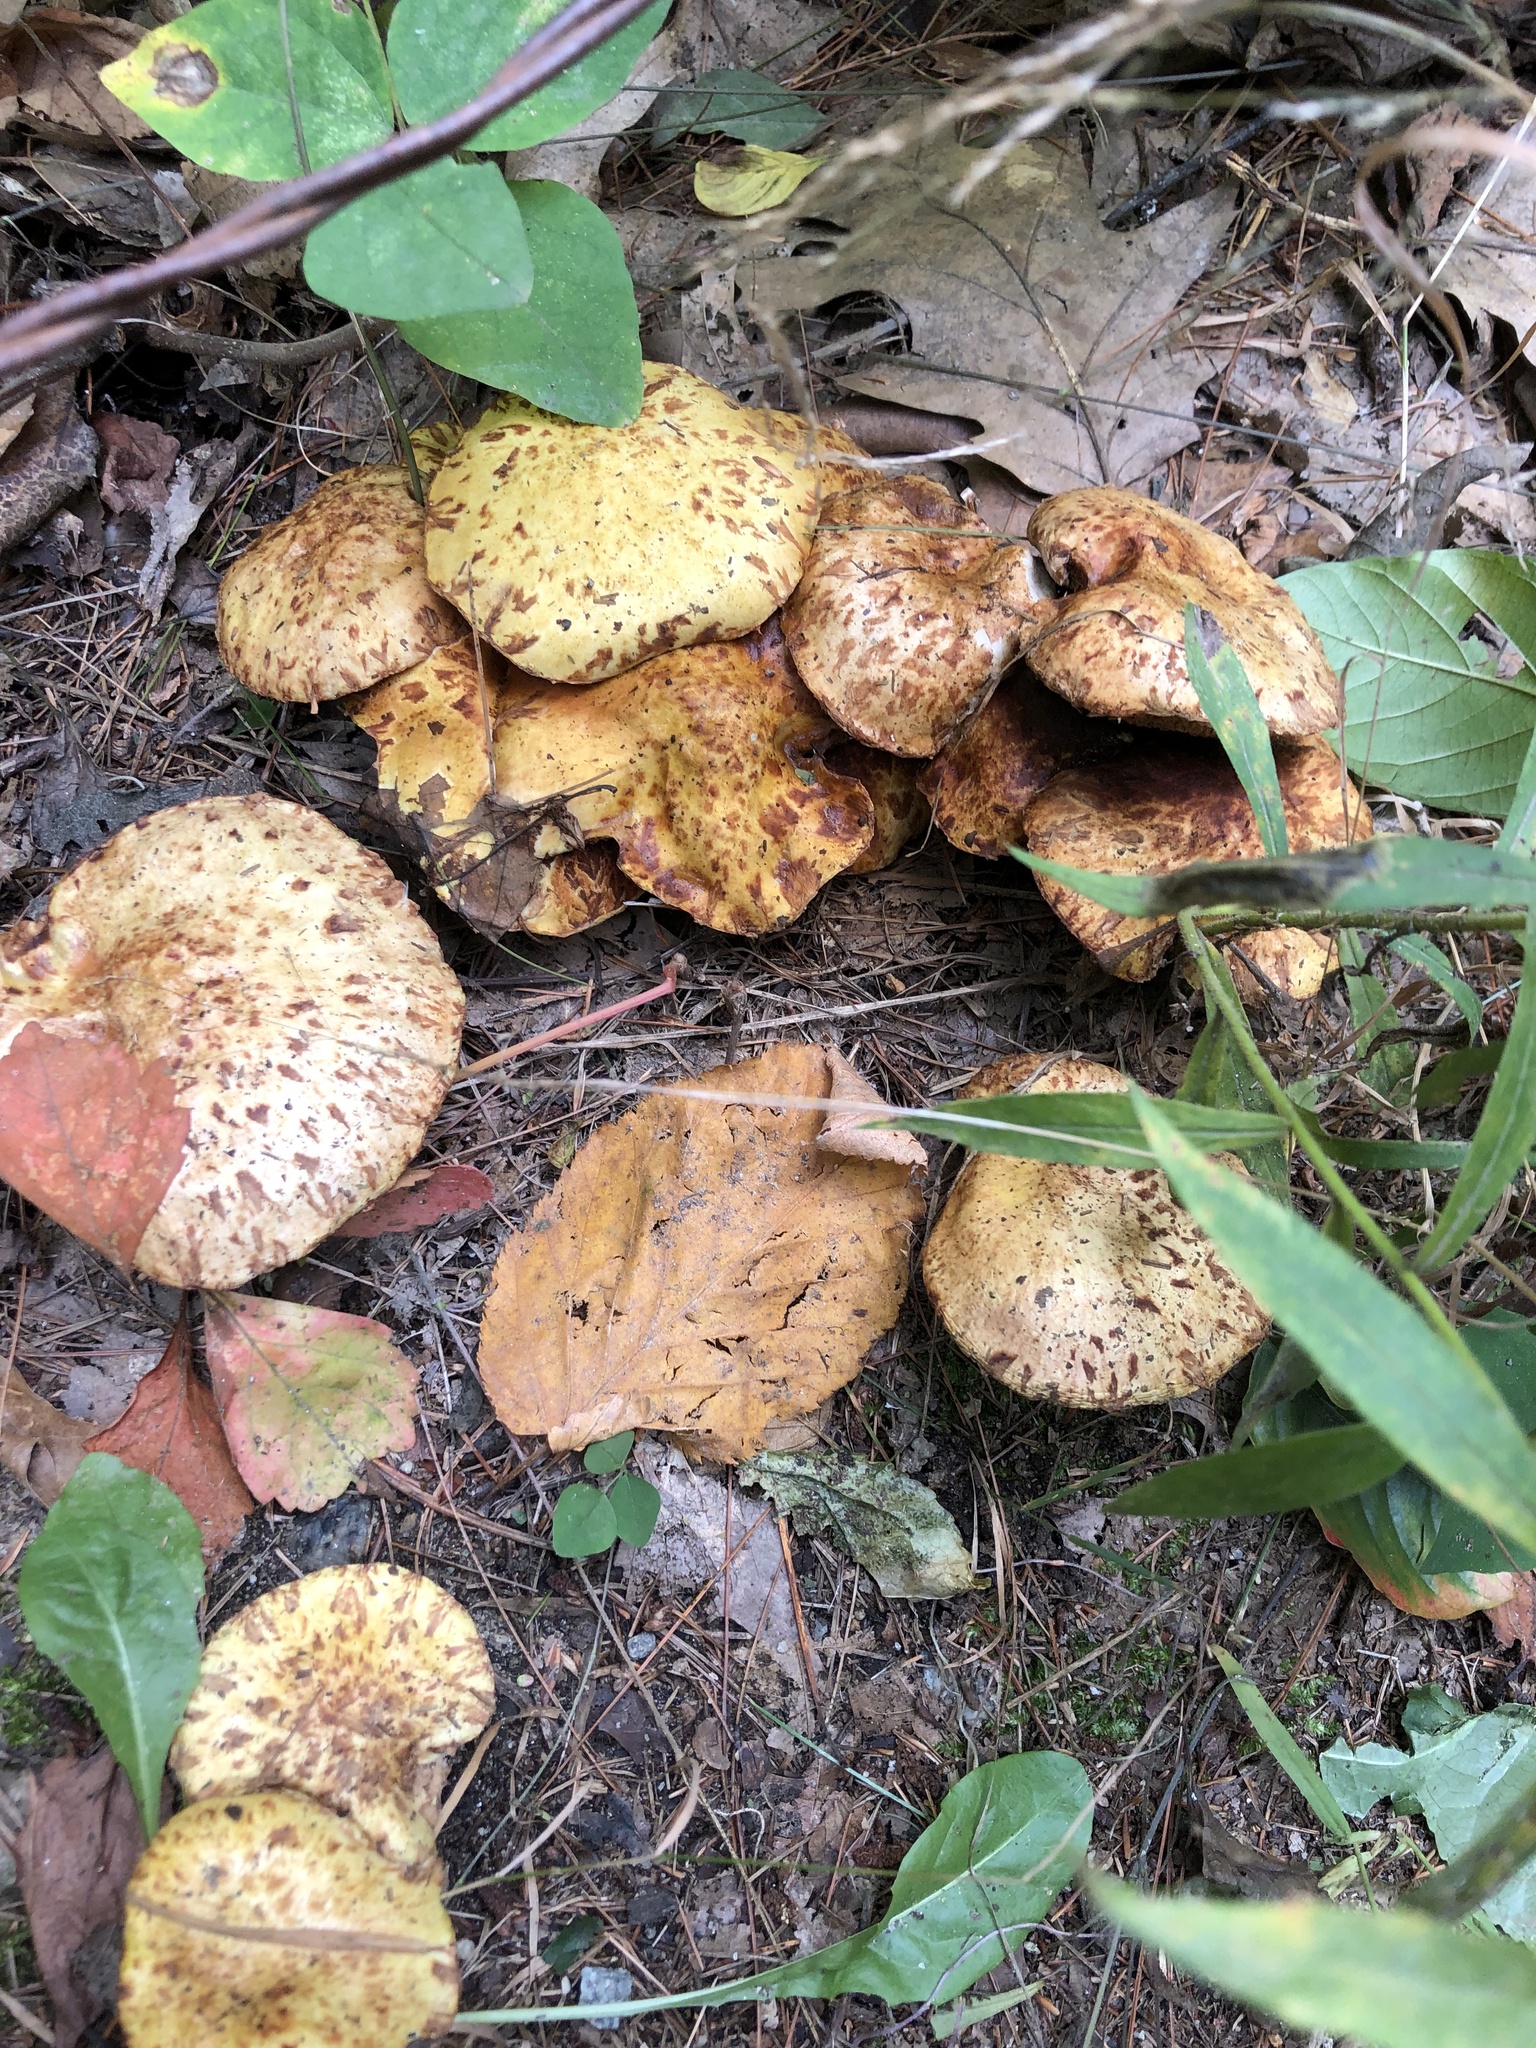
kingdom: Fungi
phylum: Basidiomycota
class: Agaricomycetes
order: Boletales
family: Suillaceae
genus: Suillus
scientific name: Suillus americanus
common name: Chicken fat mushroom
